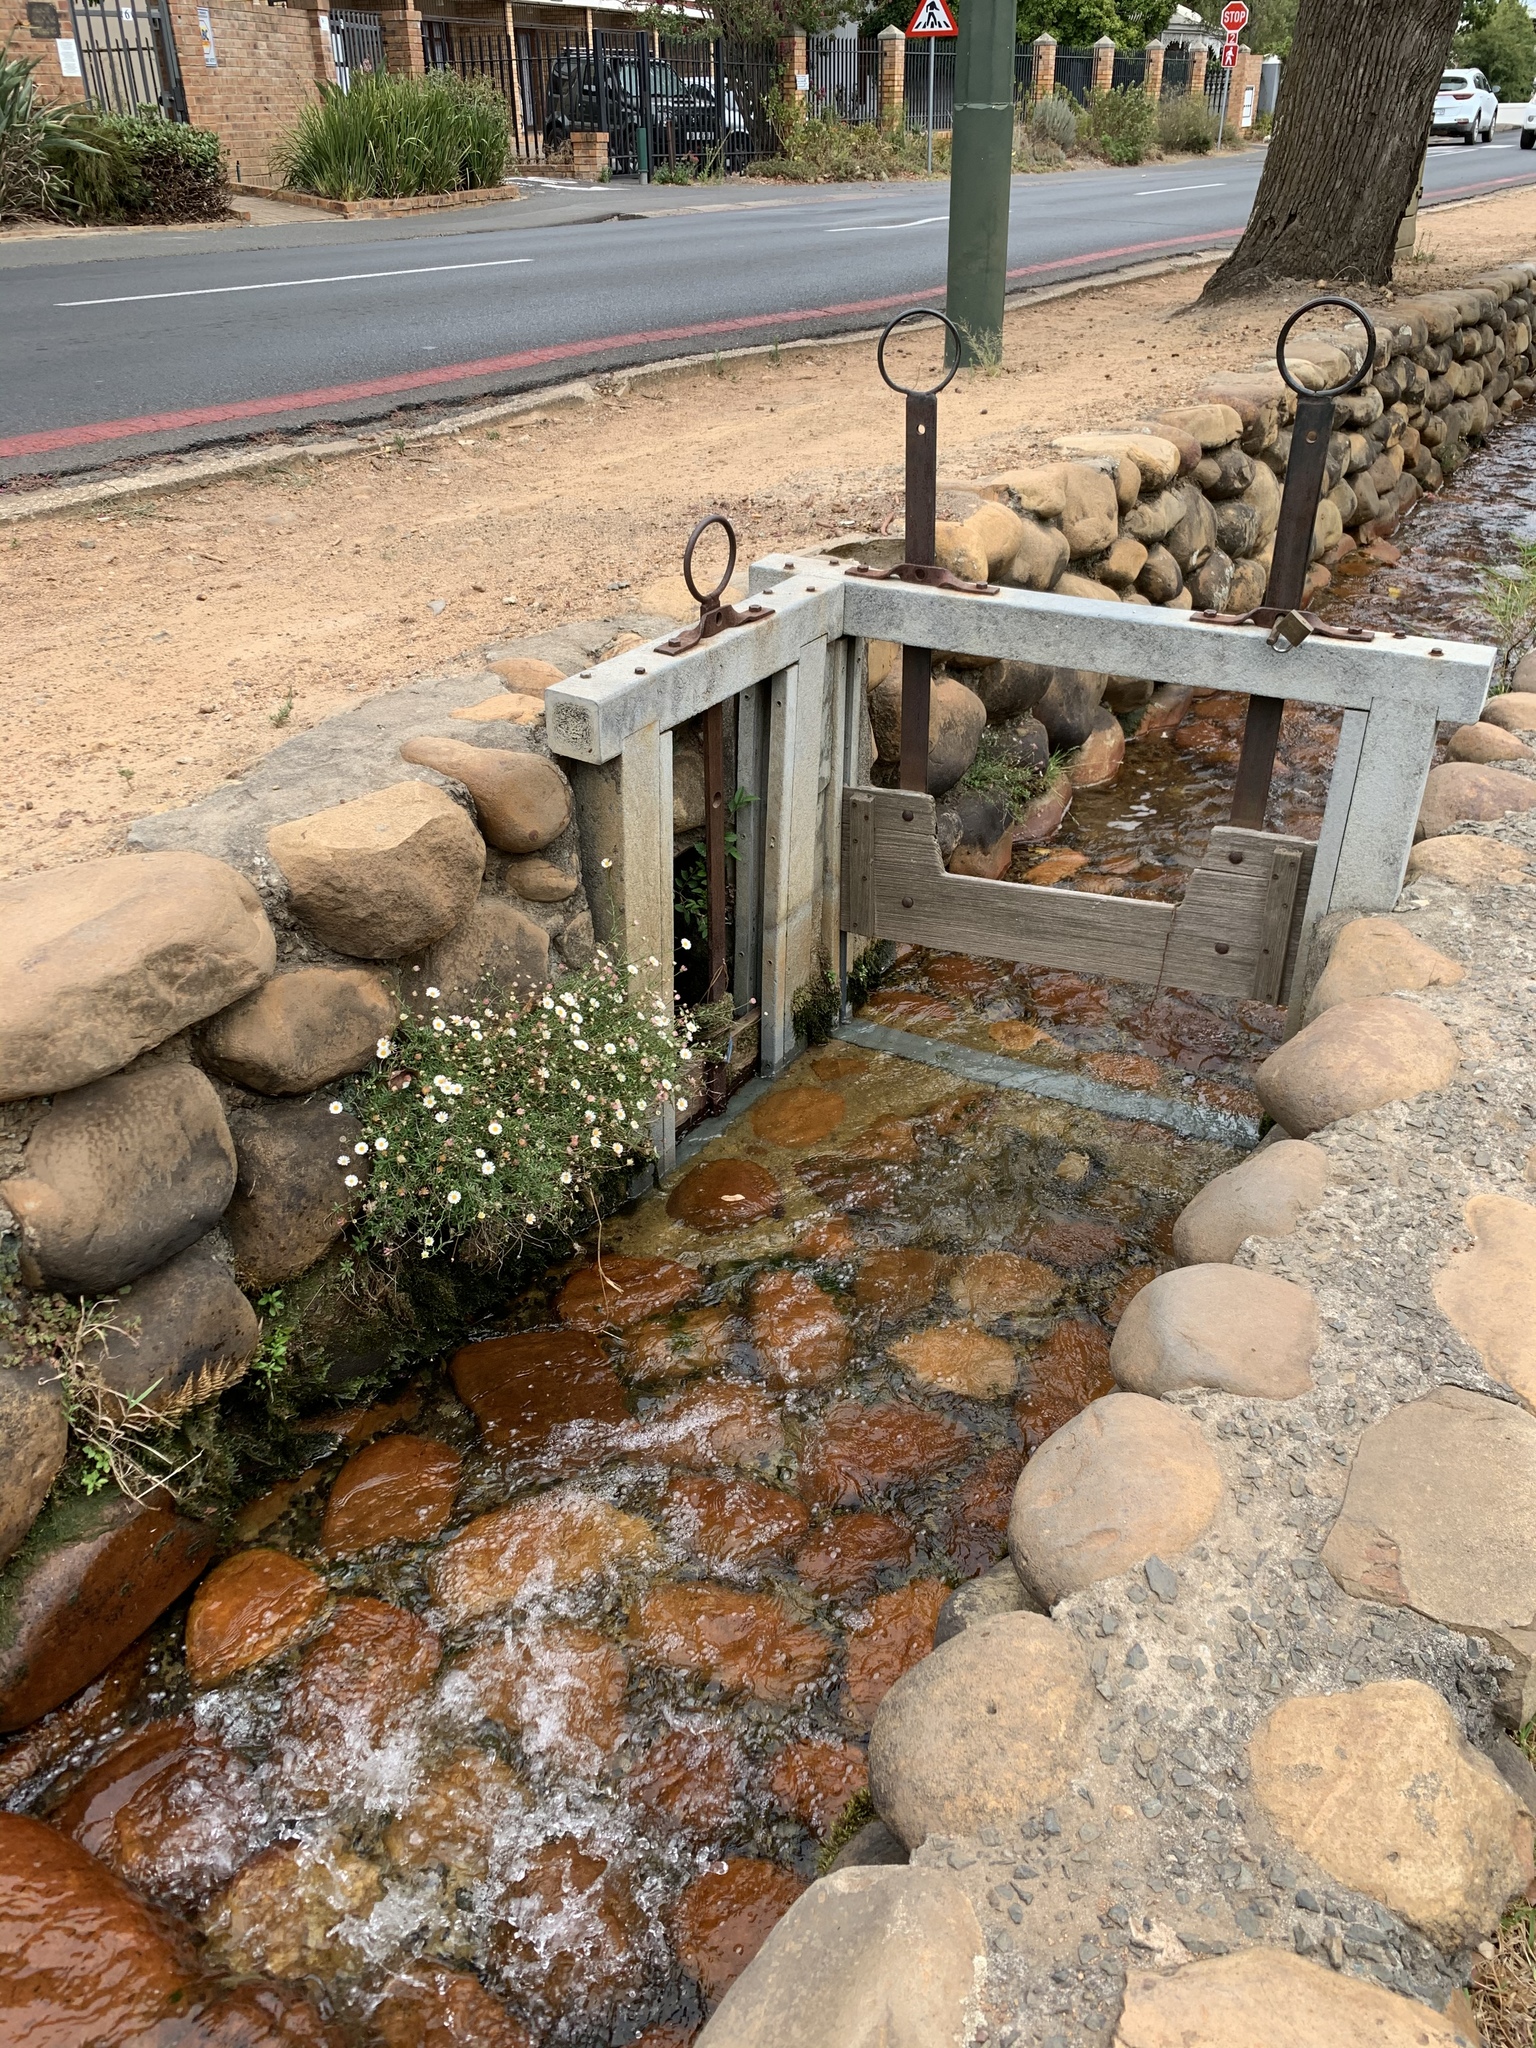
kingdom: Plantae
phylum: Tracheophyta
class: Magnoliopsida
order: Asterales
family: Asteraceae
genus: Erigeron
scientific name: Erigeron karvinskianus
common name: Mexican fleabane
